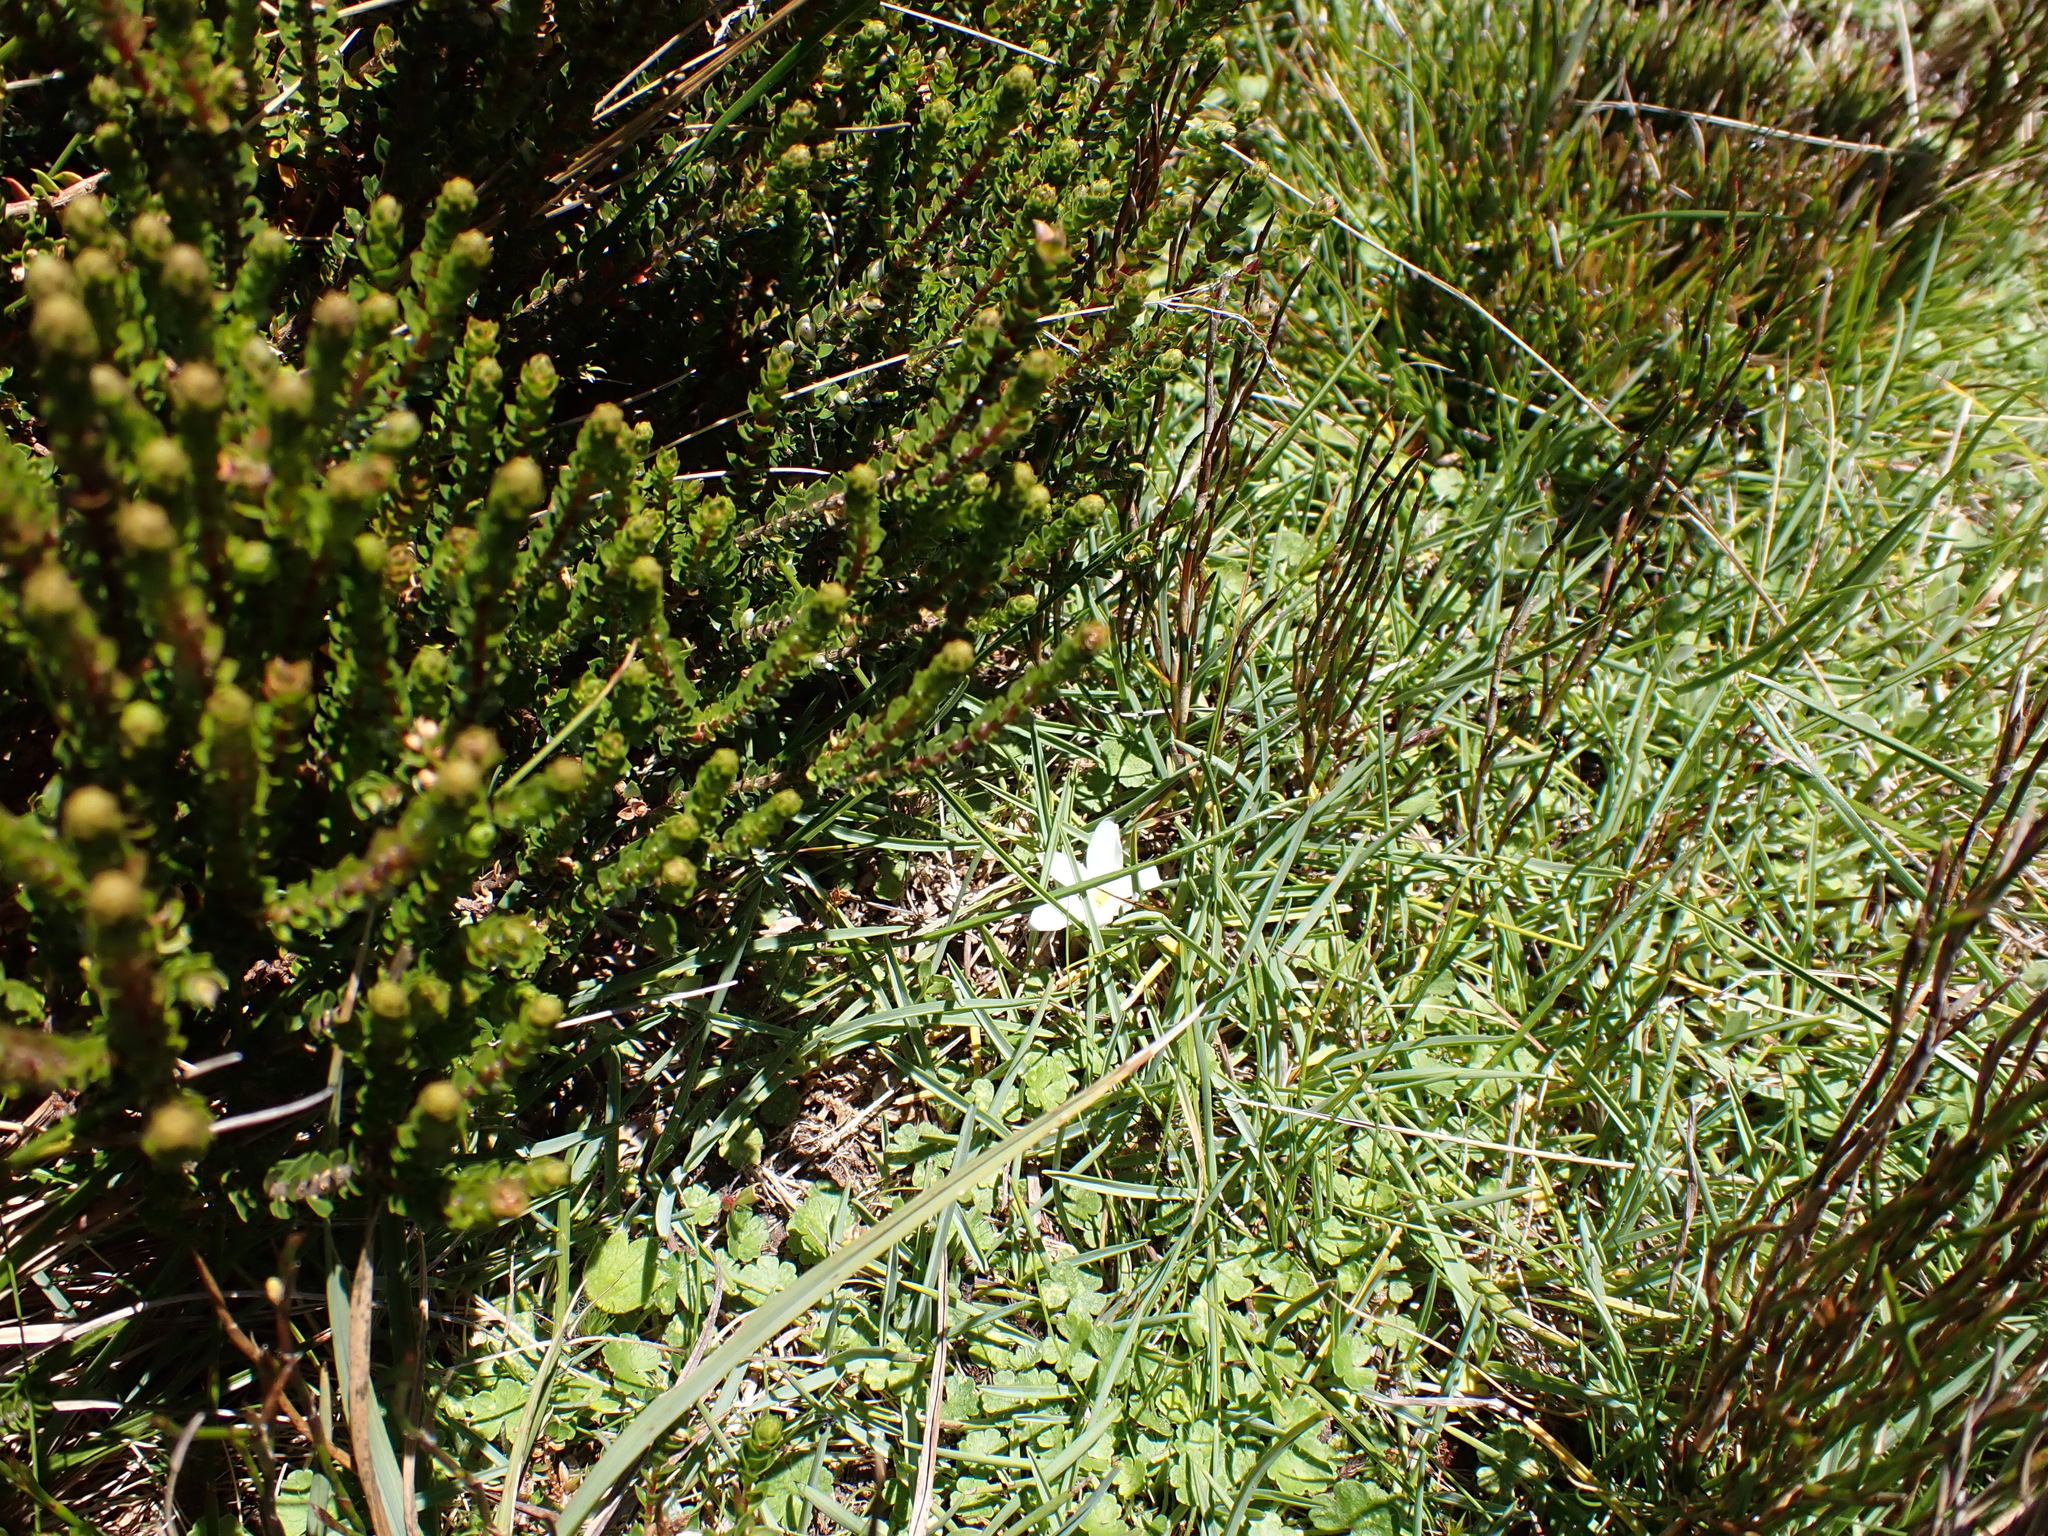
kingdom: Plantae
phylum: Tracheophyta
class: Liliopsida
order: Asparagales
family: Asphodelaceae
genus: Herpolirion
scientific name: Herpolirion novae-zelandiae
